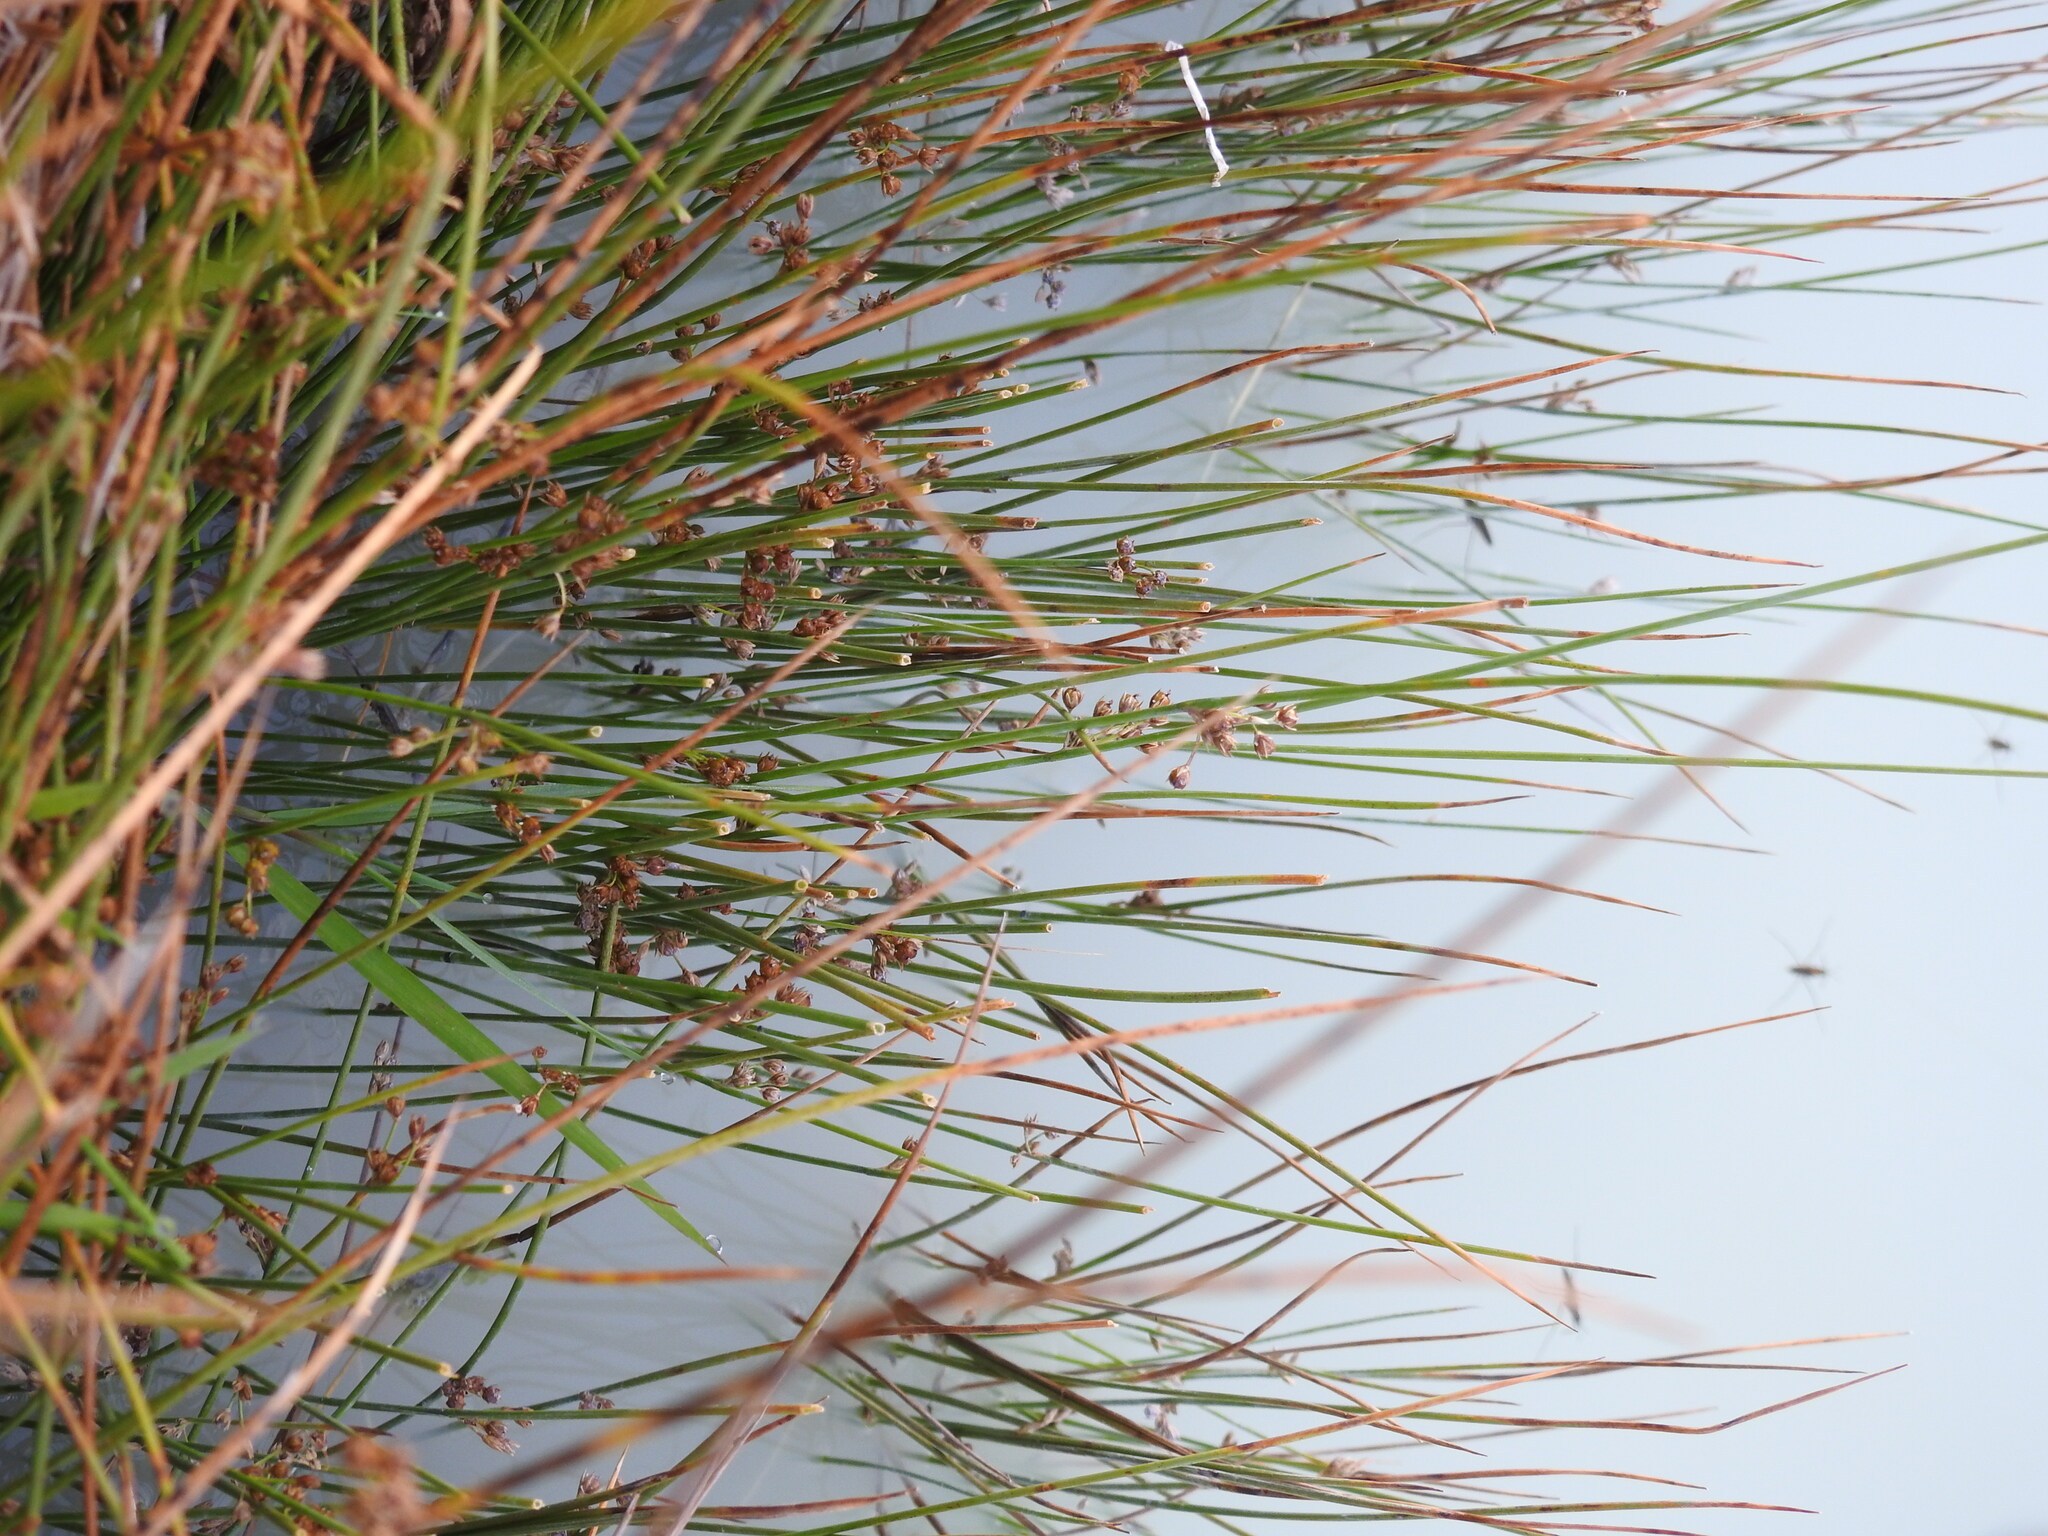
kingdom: Plantae
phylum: Tracheophyta
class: Liliopsida
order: Poales
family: Juncaceae
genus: Juncus
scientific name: Juncus filiformis
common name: Thread rush
